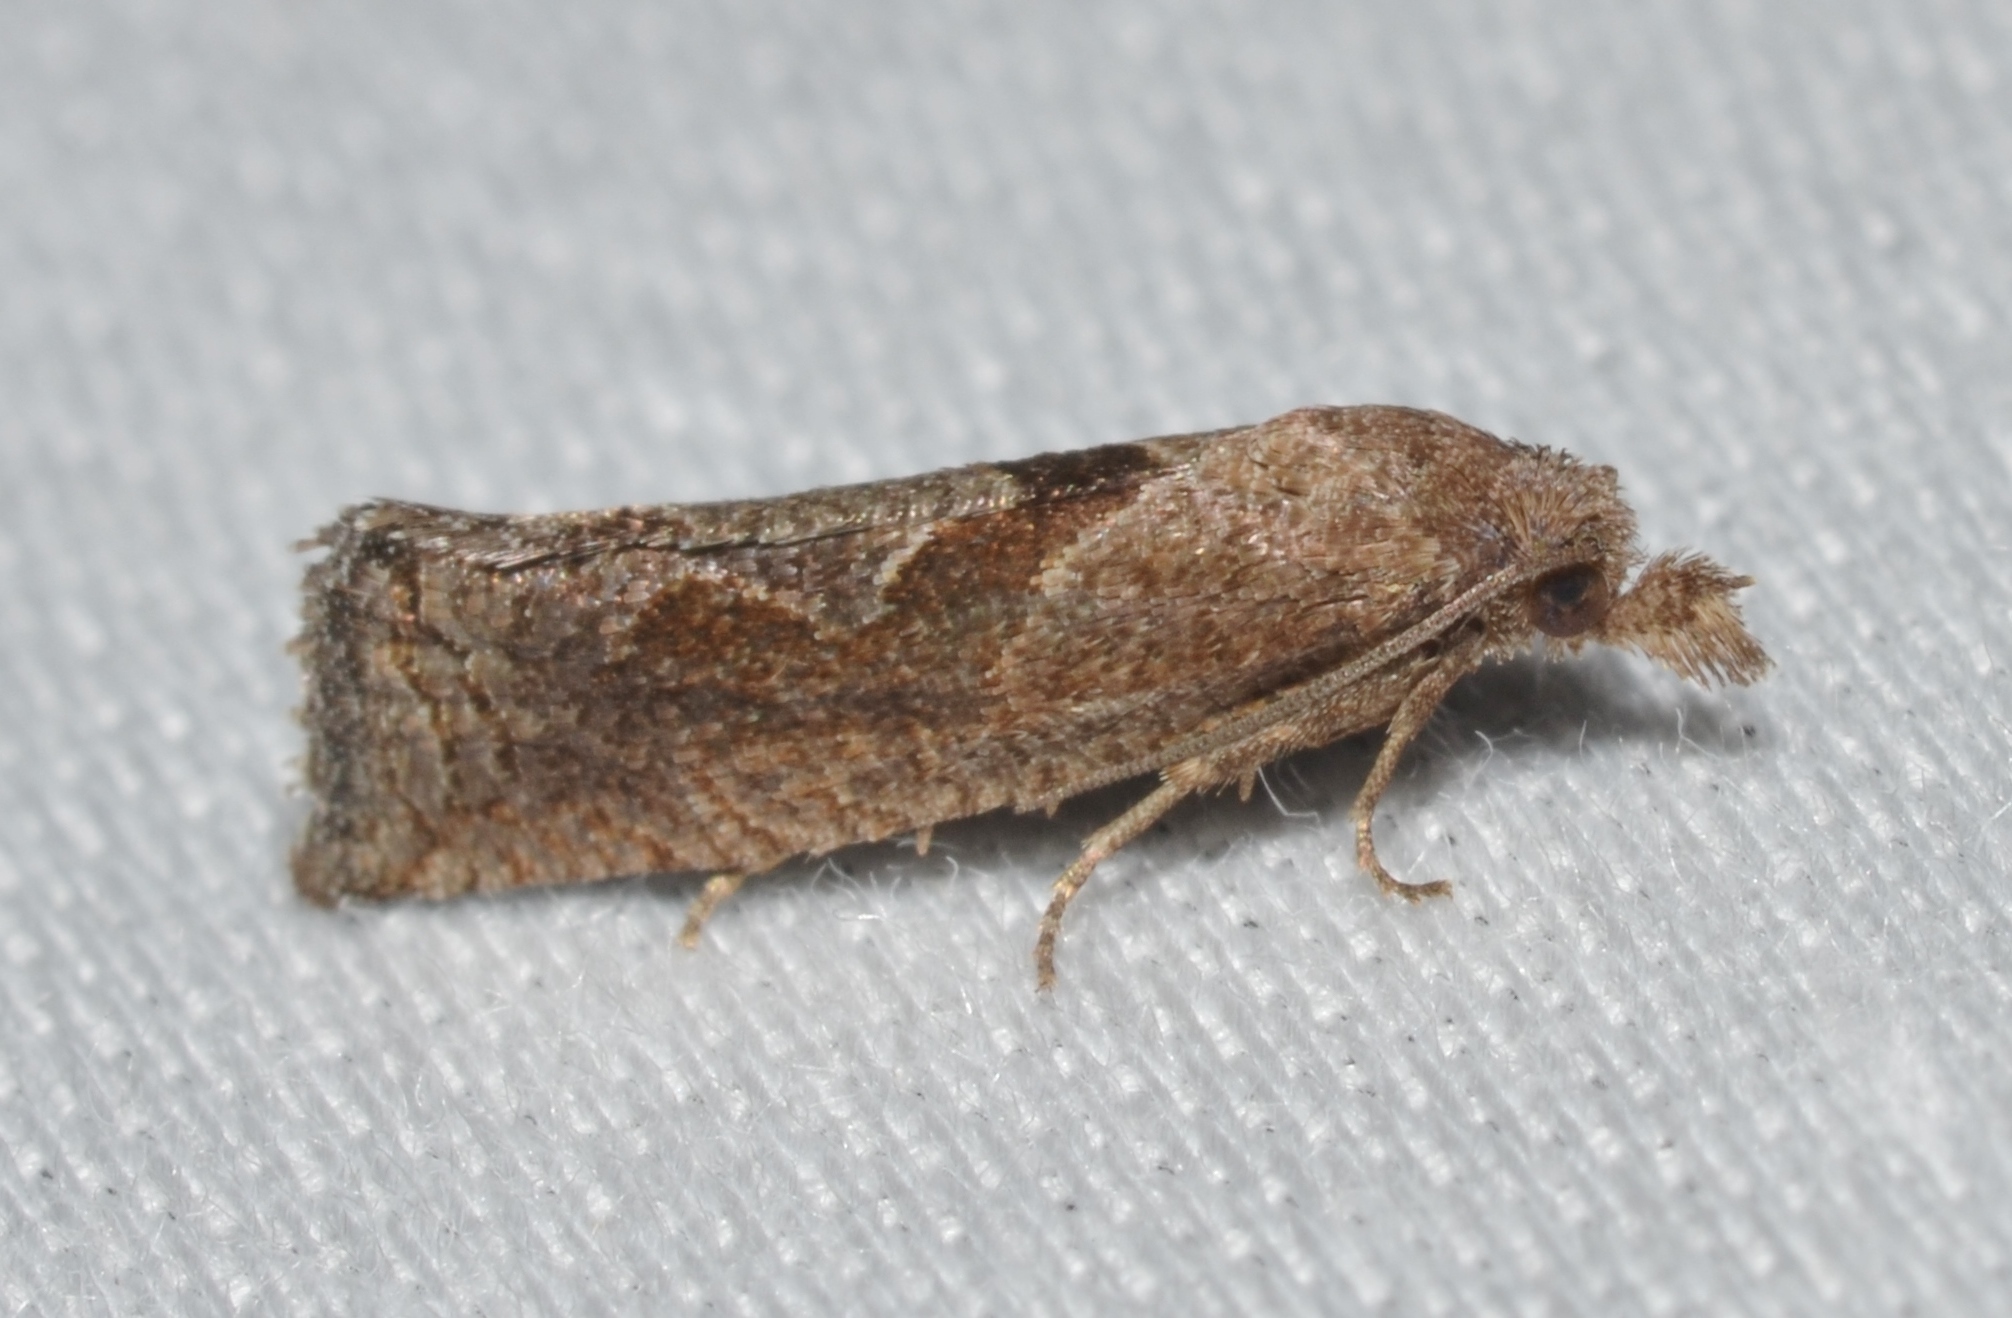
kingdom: Animalia
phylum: Arthropoda
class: Insecta
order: Lepidoptera
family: Tortricidae
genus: Pelochrista
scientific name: Pelochrista similiana
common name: Similar eucosma
